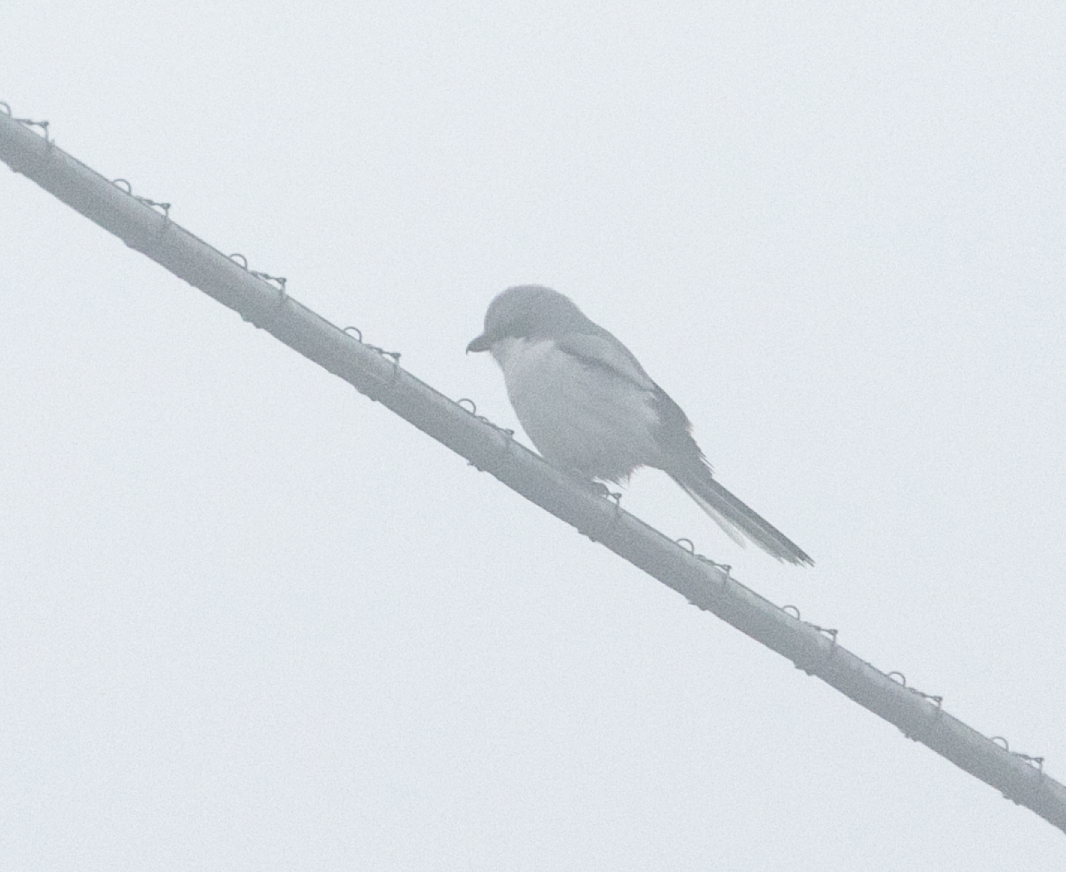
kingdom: Animalia
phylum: Chordata
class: Aves
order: Passeriformes
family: Laniidae
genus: Lanius
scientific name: Lanius excubitor
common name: Great grey shrike
